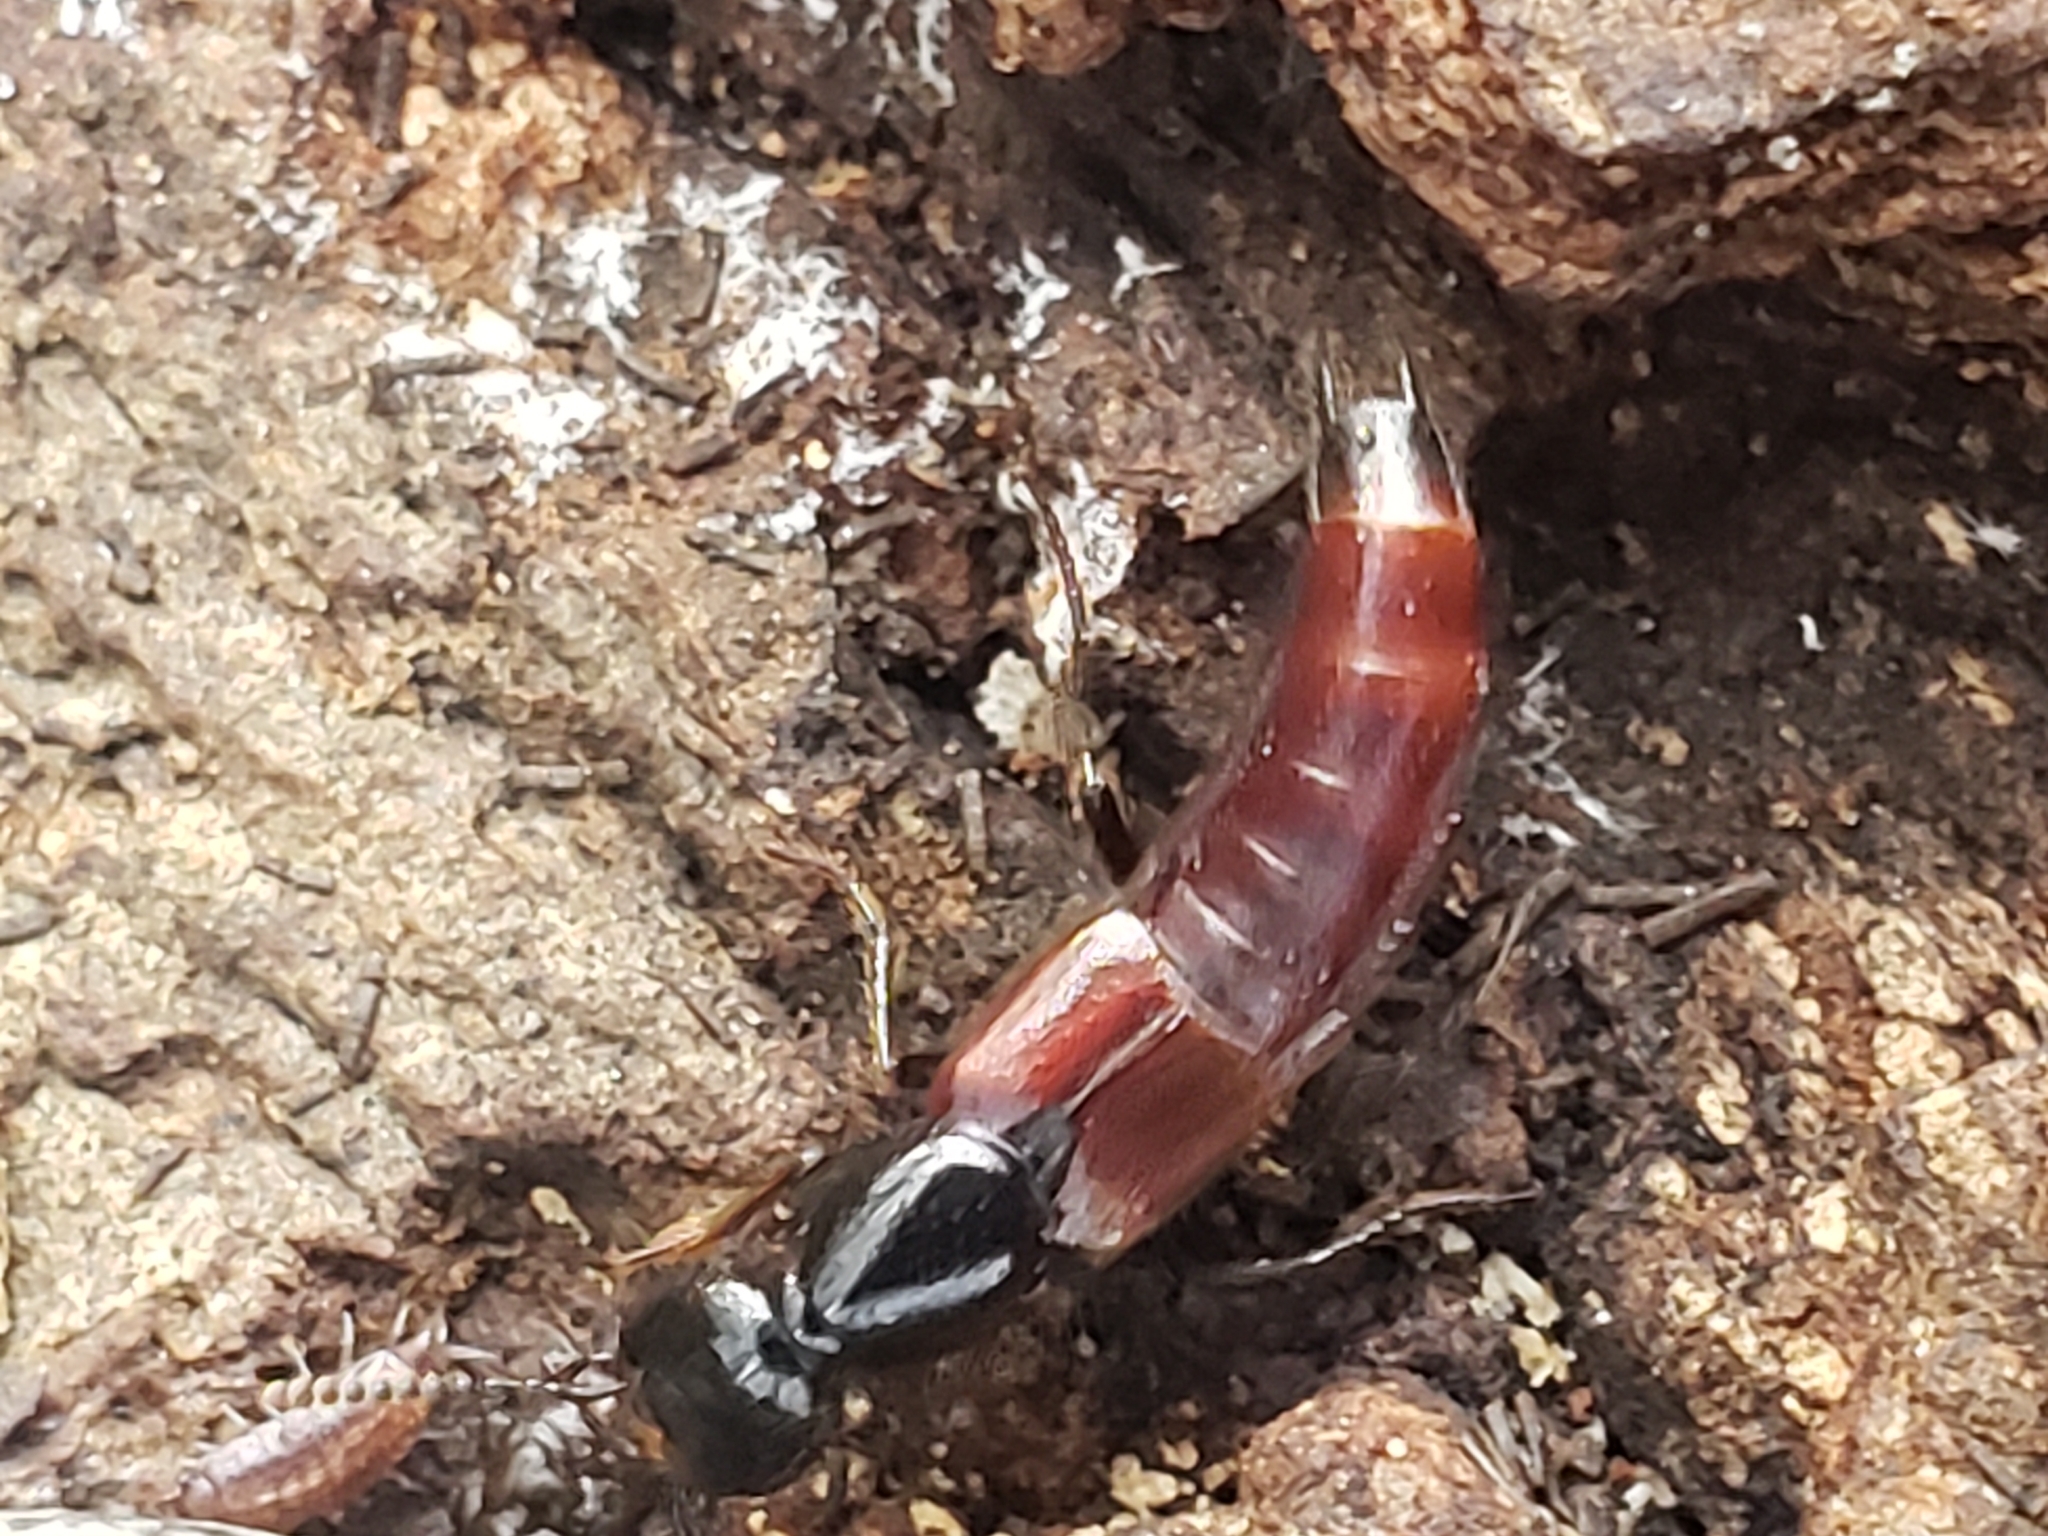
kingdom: Animalia
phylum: Arthropoda
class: Insecta
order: Coleoptera
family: Staphylinidae
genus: Hesperus
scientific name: Hesperus baltimorensis
